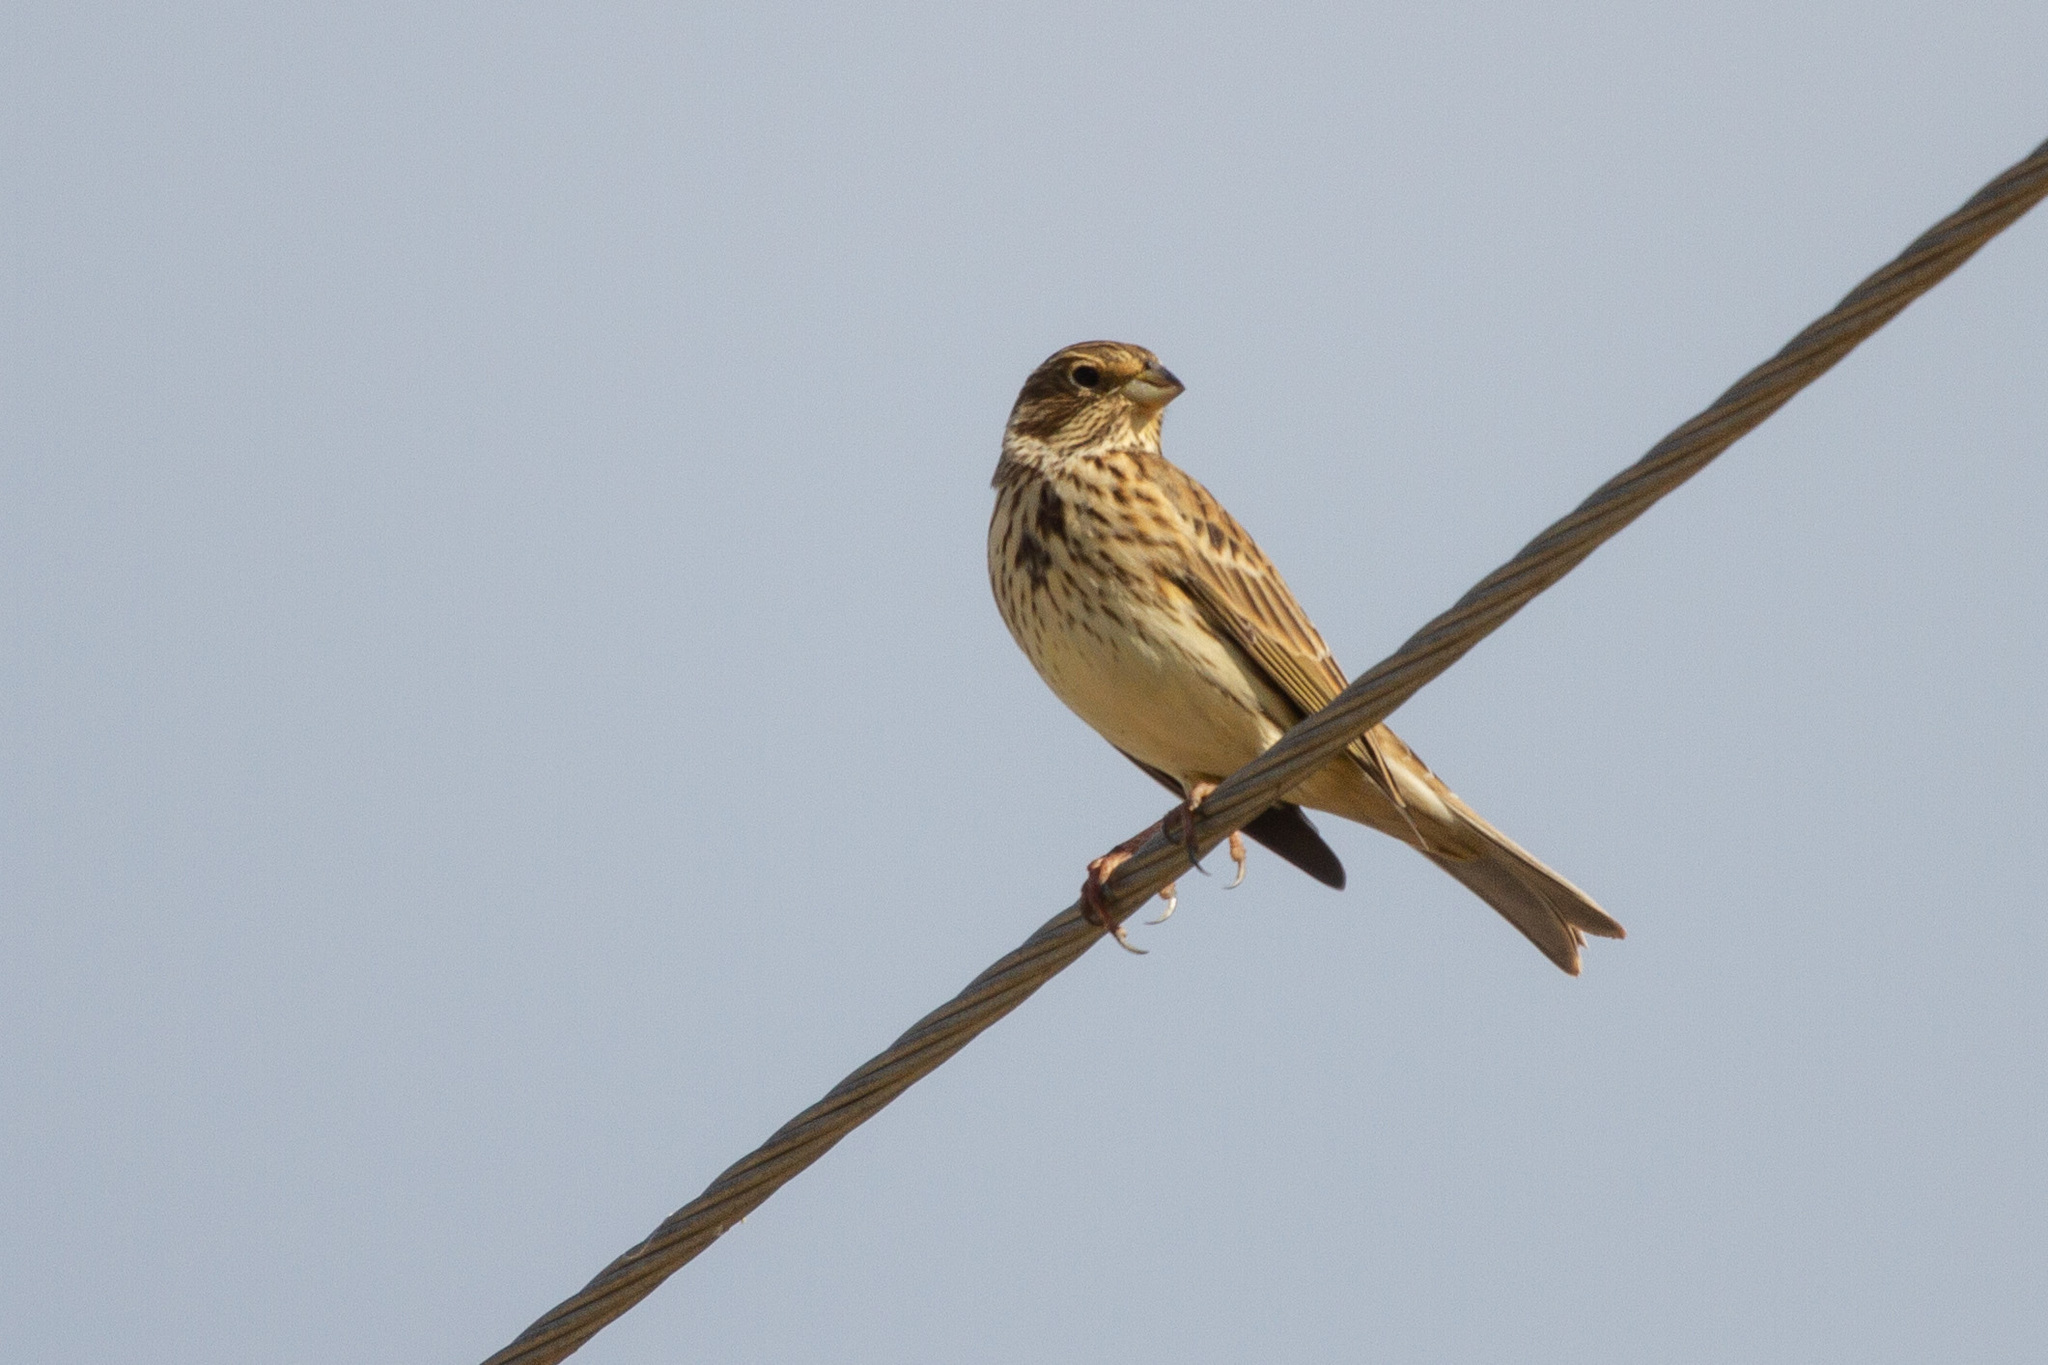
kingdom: Animalia
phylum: Chordata
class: Aves
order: Passeriformes
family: Emberizidae
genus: Emberiza
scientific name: Emberiza calandra
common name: Corn bunting
